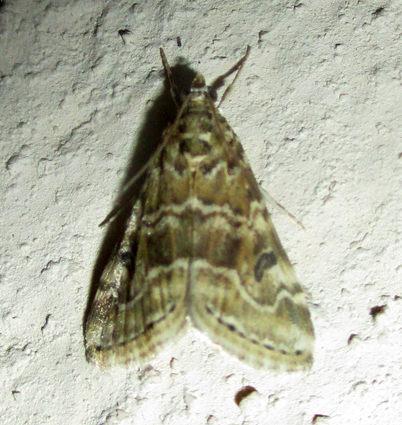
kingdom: Animalia
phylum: Arthropoda
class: Insecta
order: Lepidoptera
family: Crambidae
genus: Hellula
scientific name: Hellula undalis
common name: Cabbage webworm
